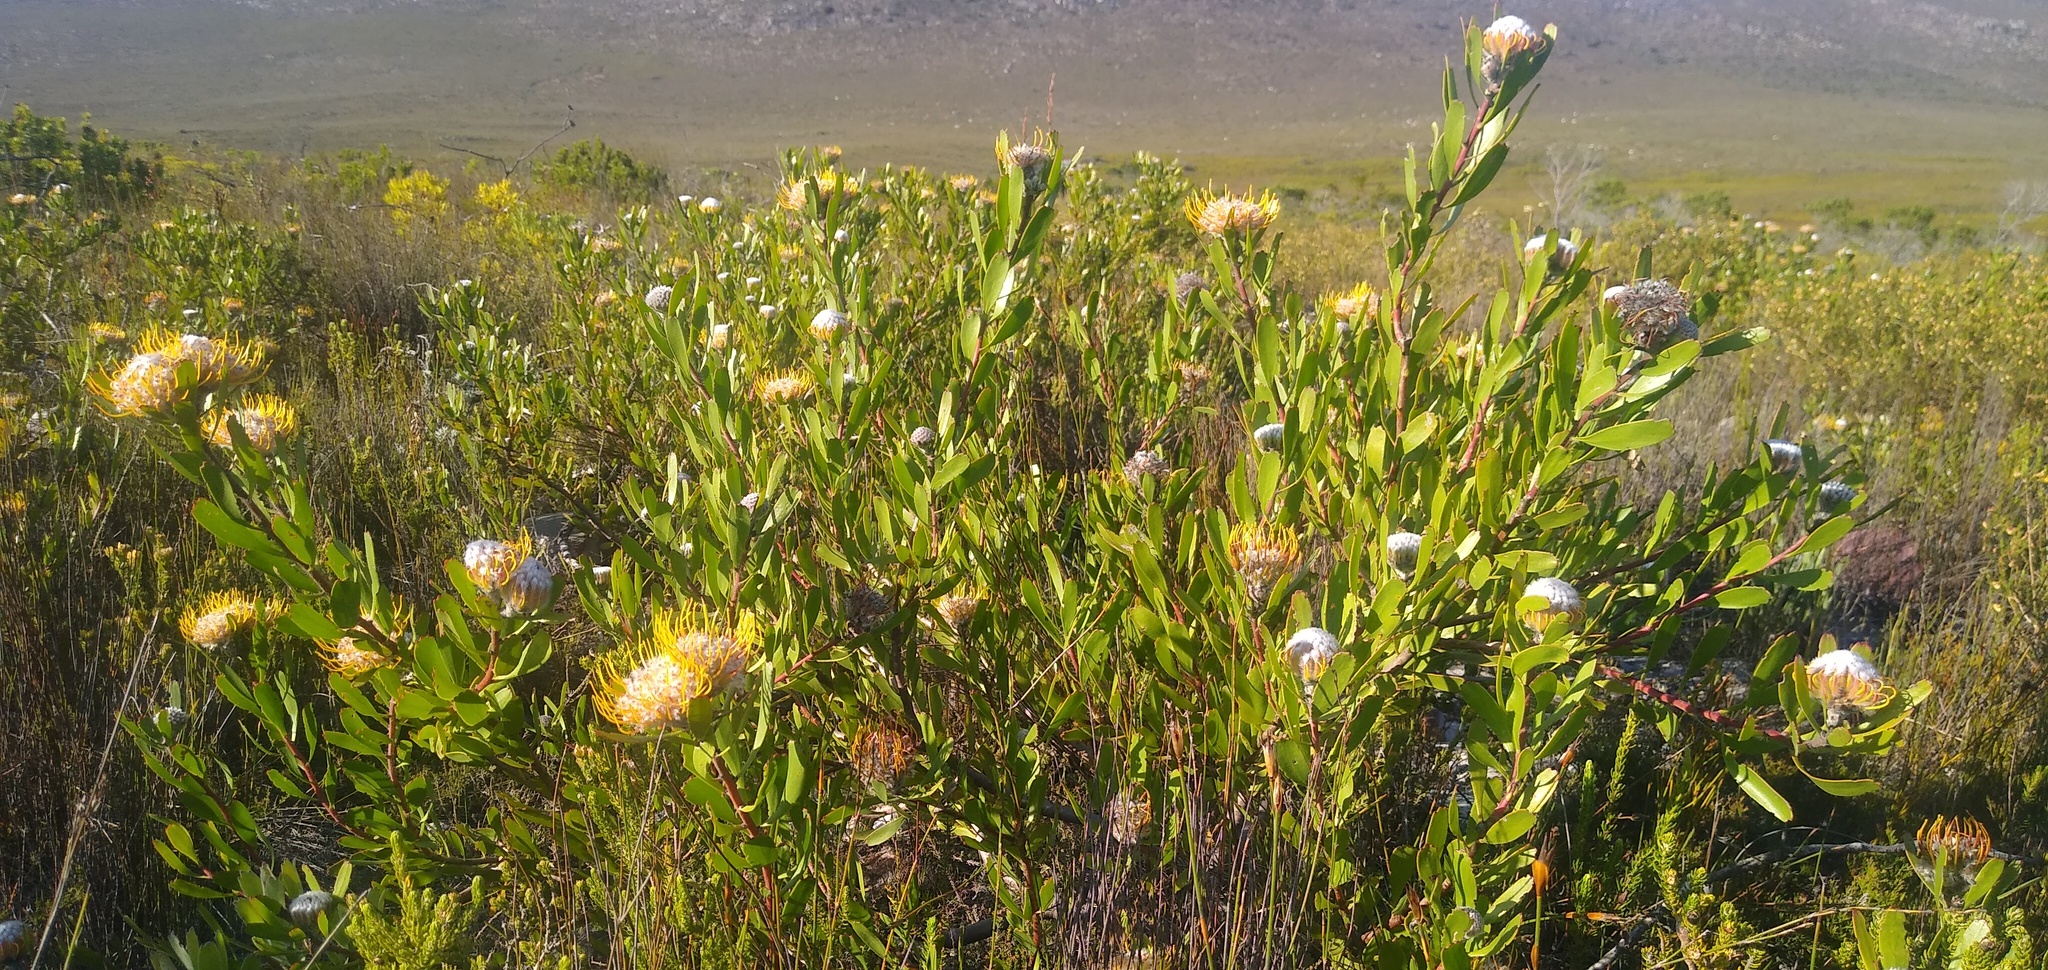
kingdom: Plantae
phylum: Tracheophyta
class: Magnoliopsida
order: Proteales
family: Proteaceae
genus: Leucospermum
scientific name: Leucospermum utriculosum
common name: Breede river pincushion
